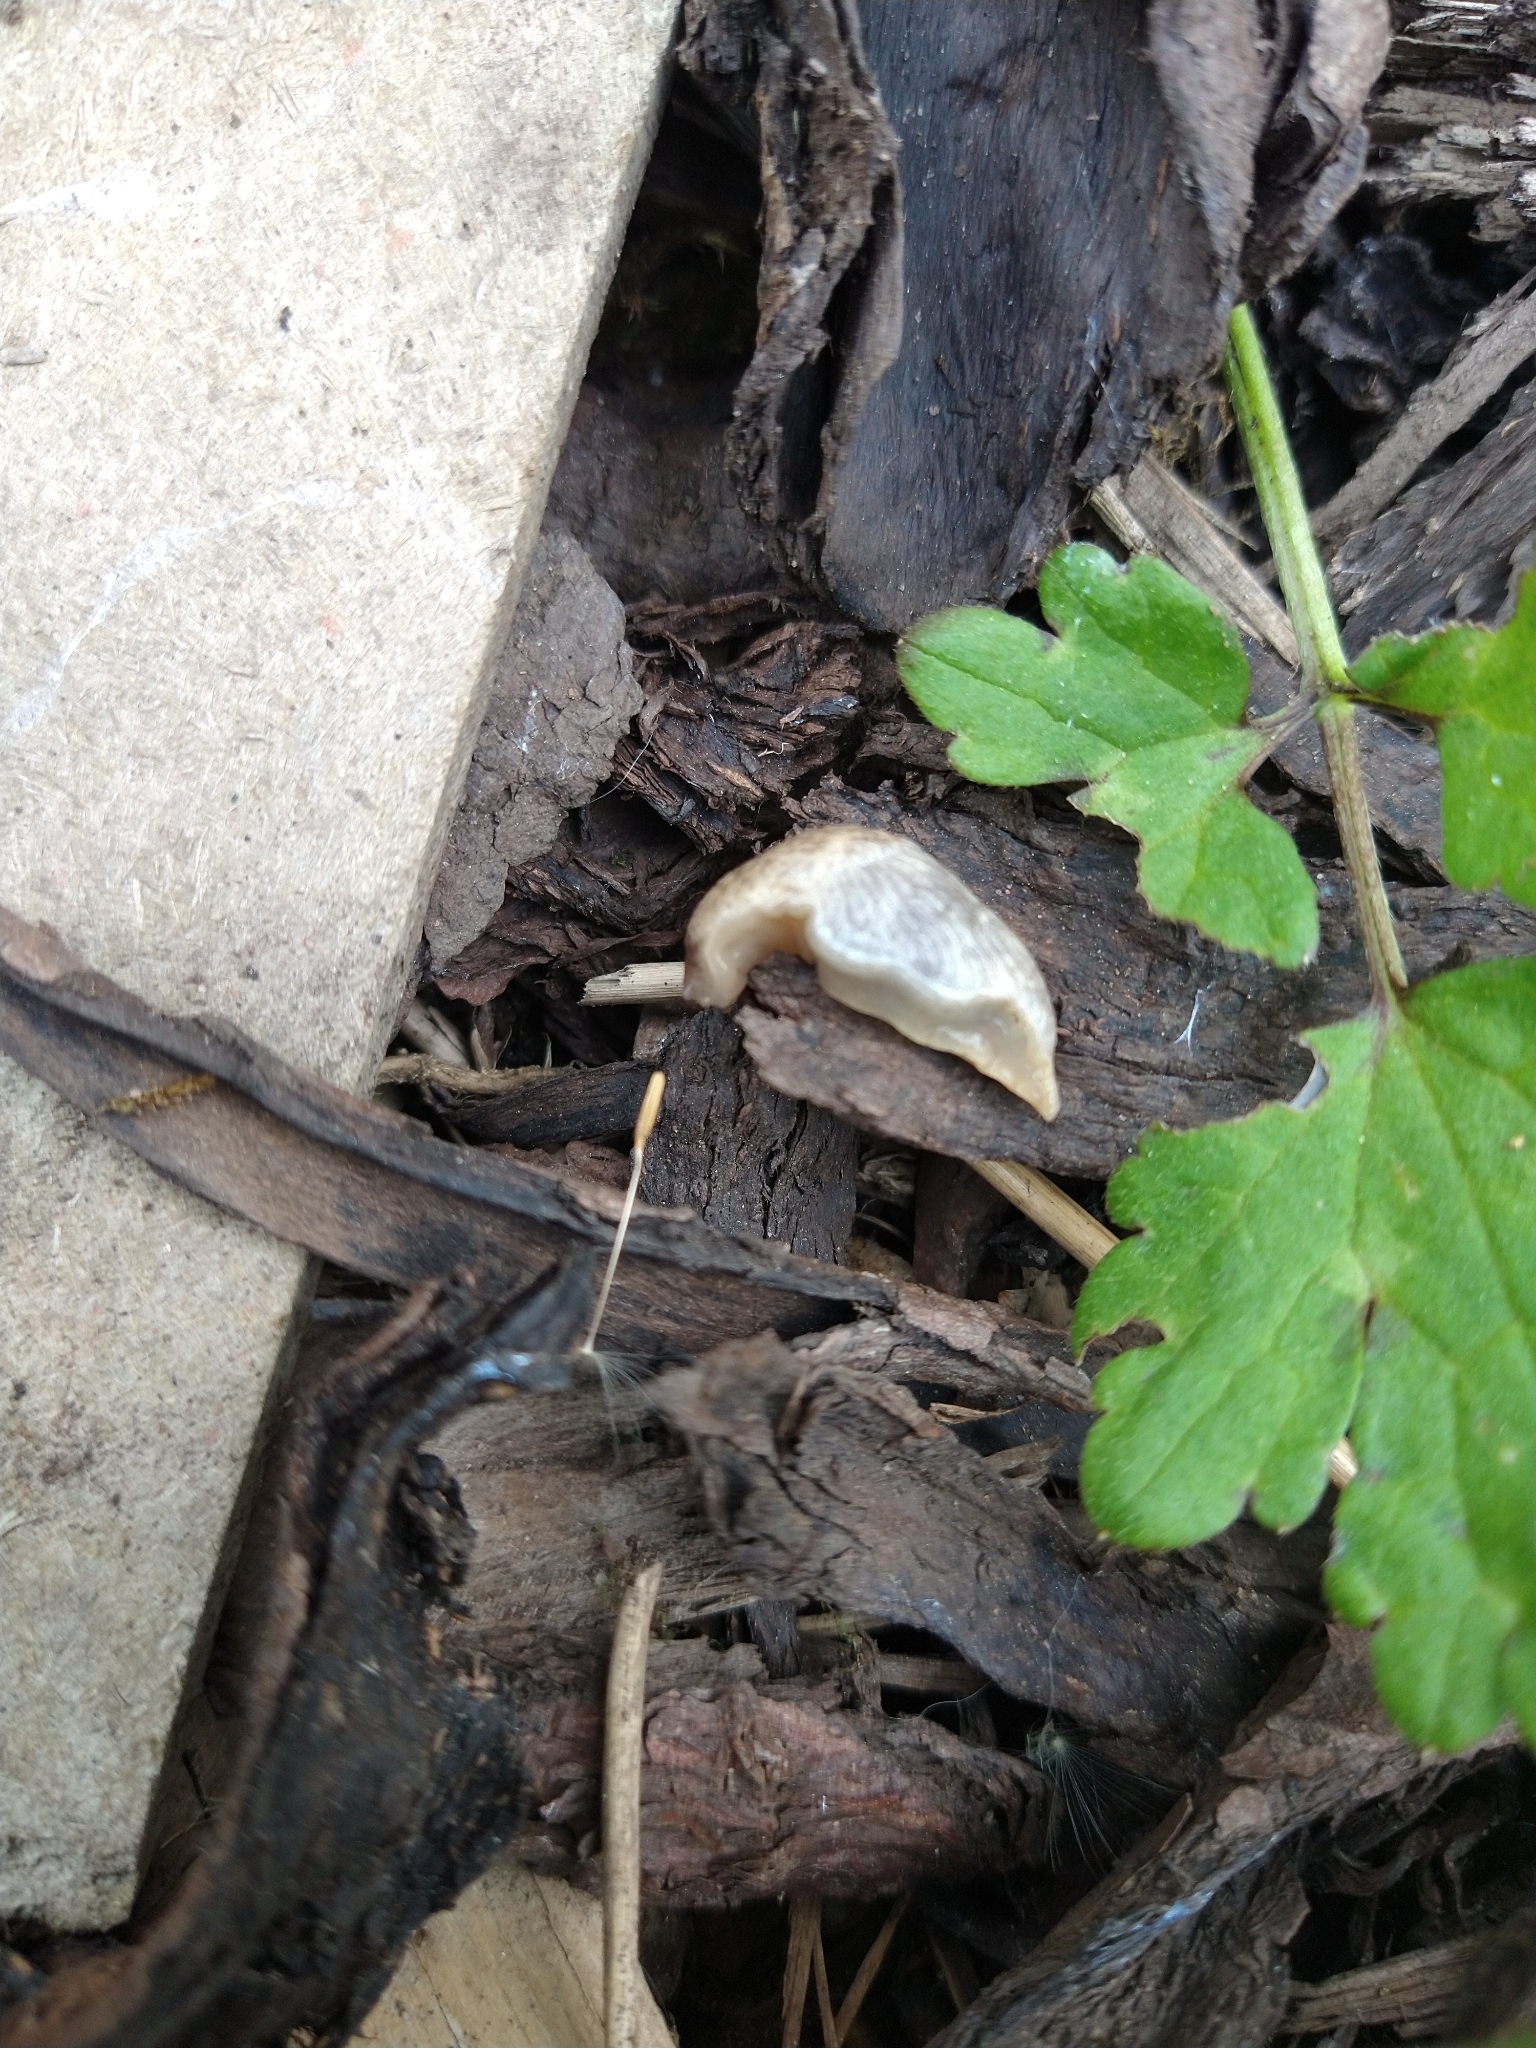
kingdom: Animalia
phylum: Mollusca
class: Gastropoda
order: Stylommatophora
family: Agriolimacidae
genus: Deroceras
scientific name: Deroceras reticulatum
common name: Gray field slug
